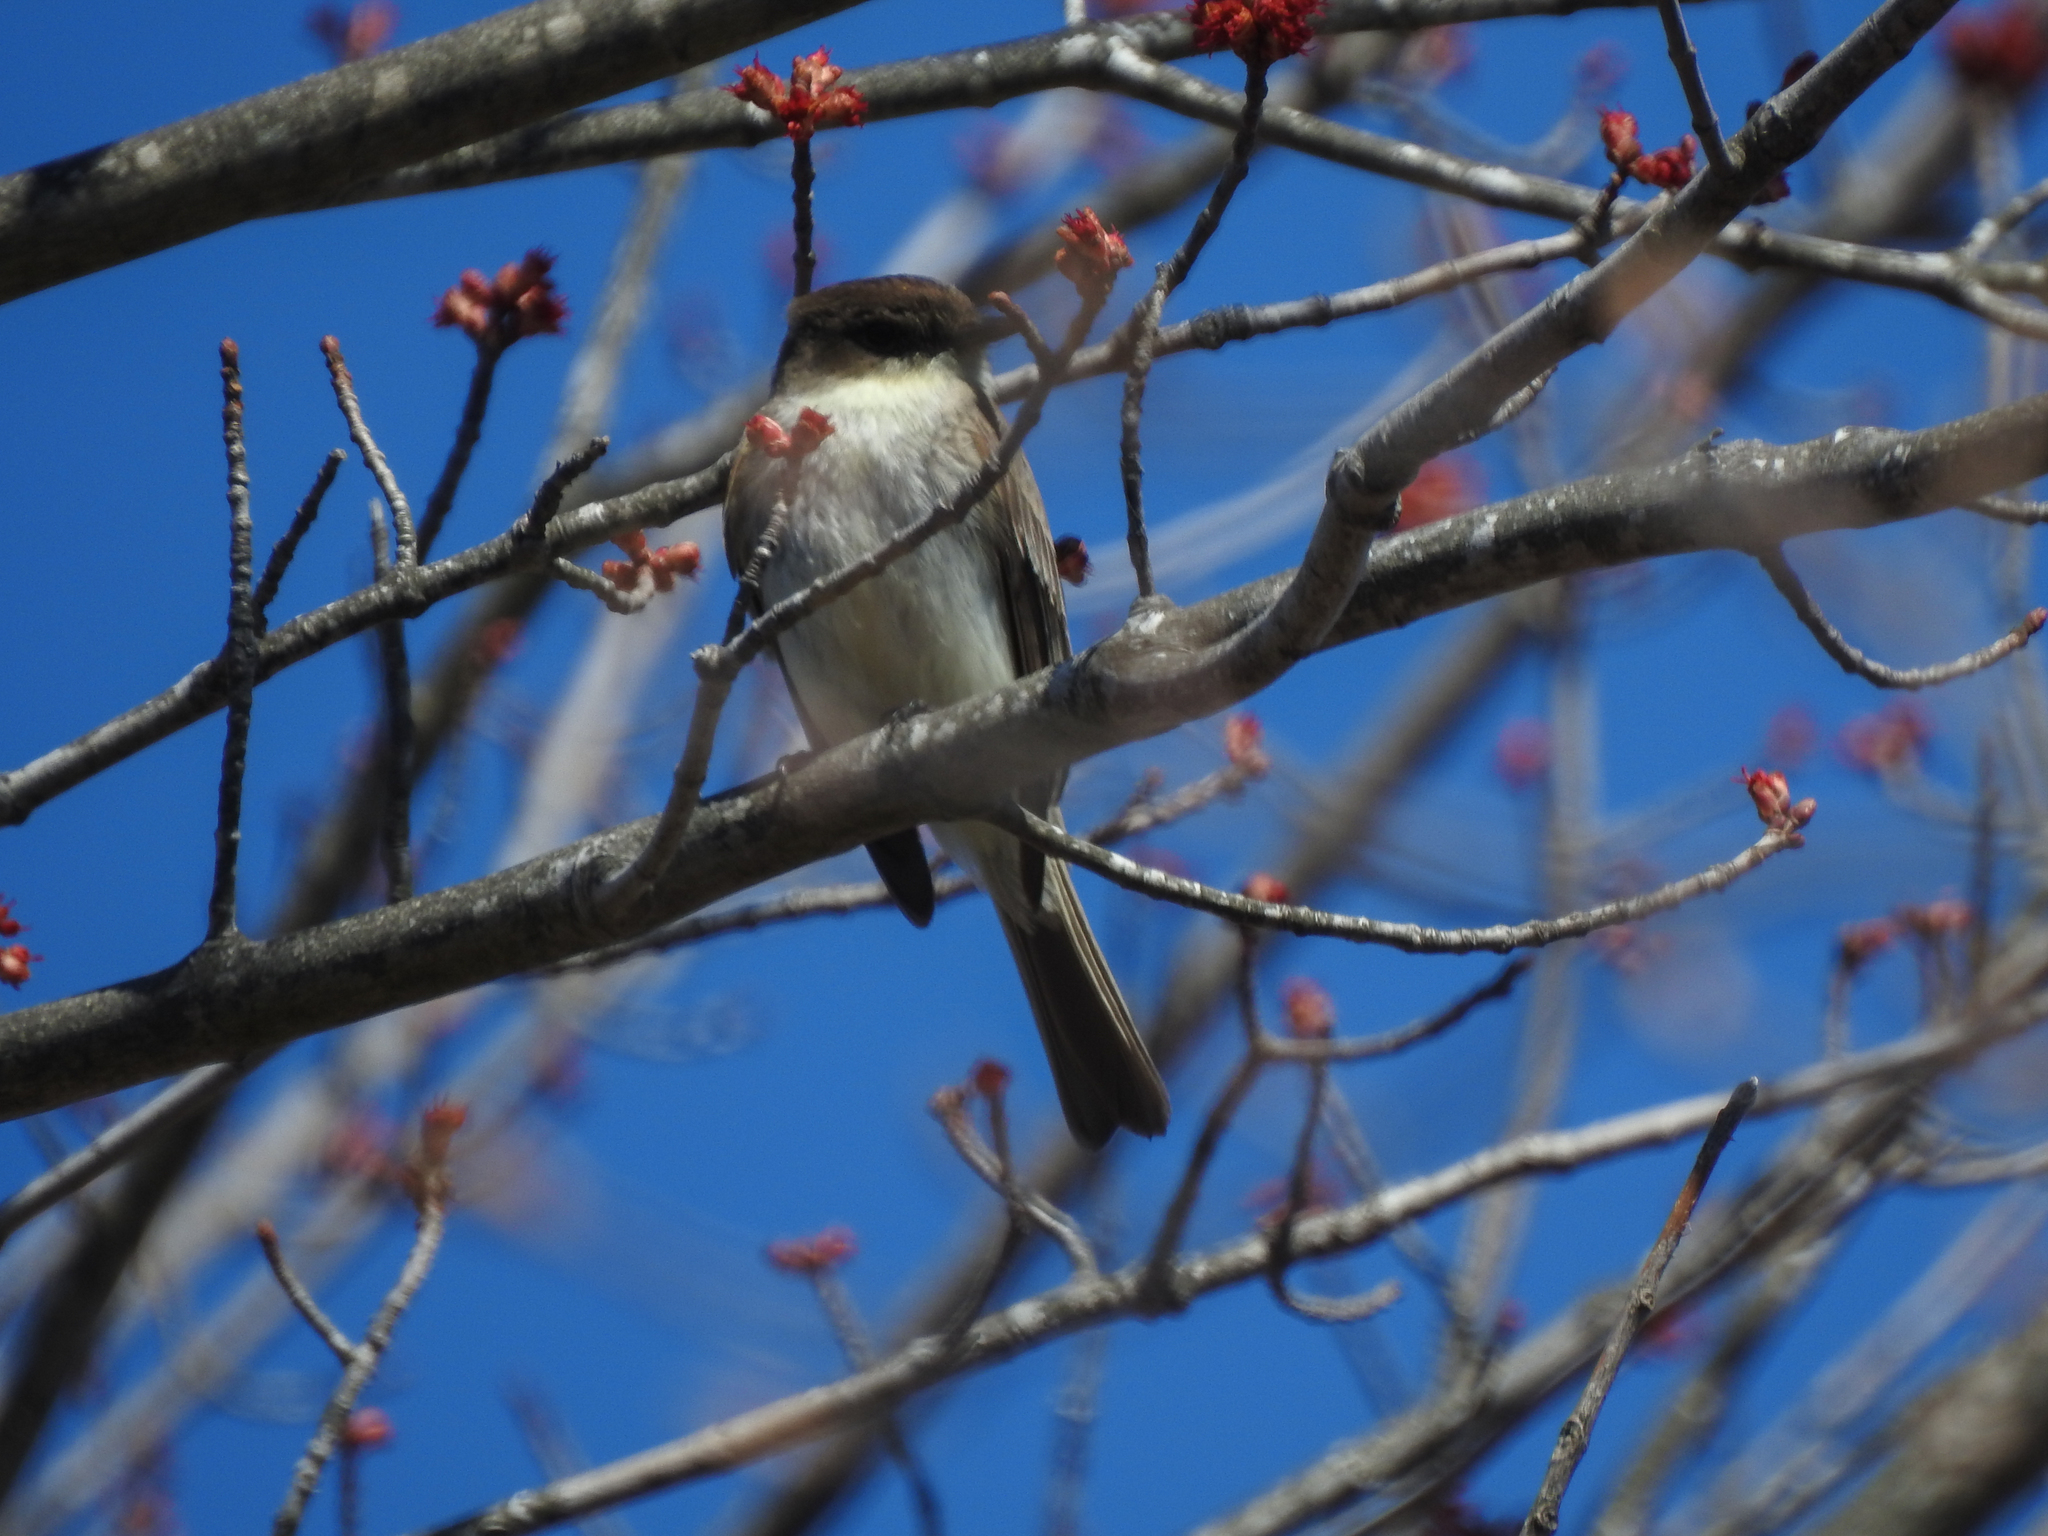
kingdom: Animalia
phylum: Chordata
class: Aves
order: Passeriformes
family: Tyrannidae
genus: Sayornis
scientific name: Sayornis phoebe
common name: Eastern phoebe
